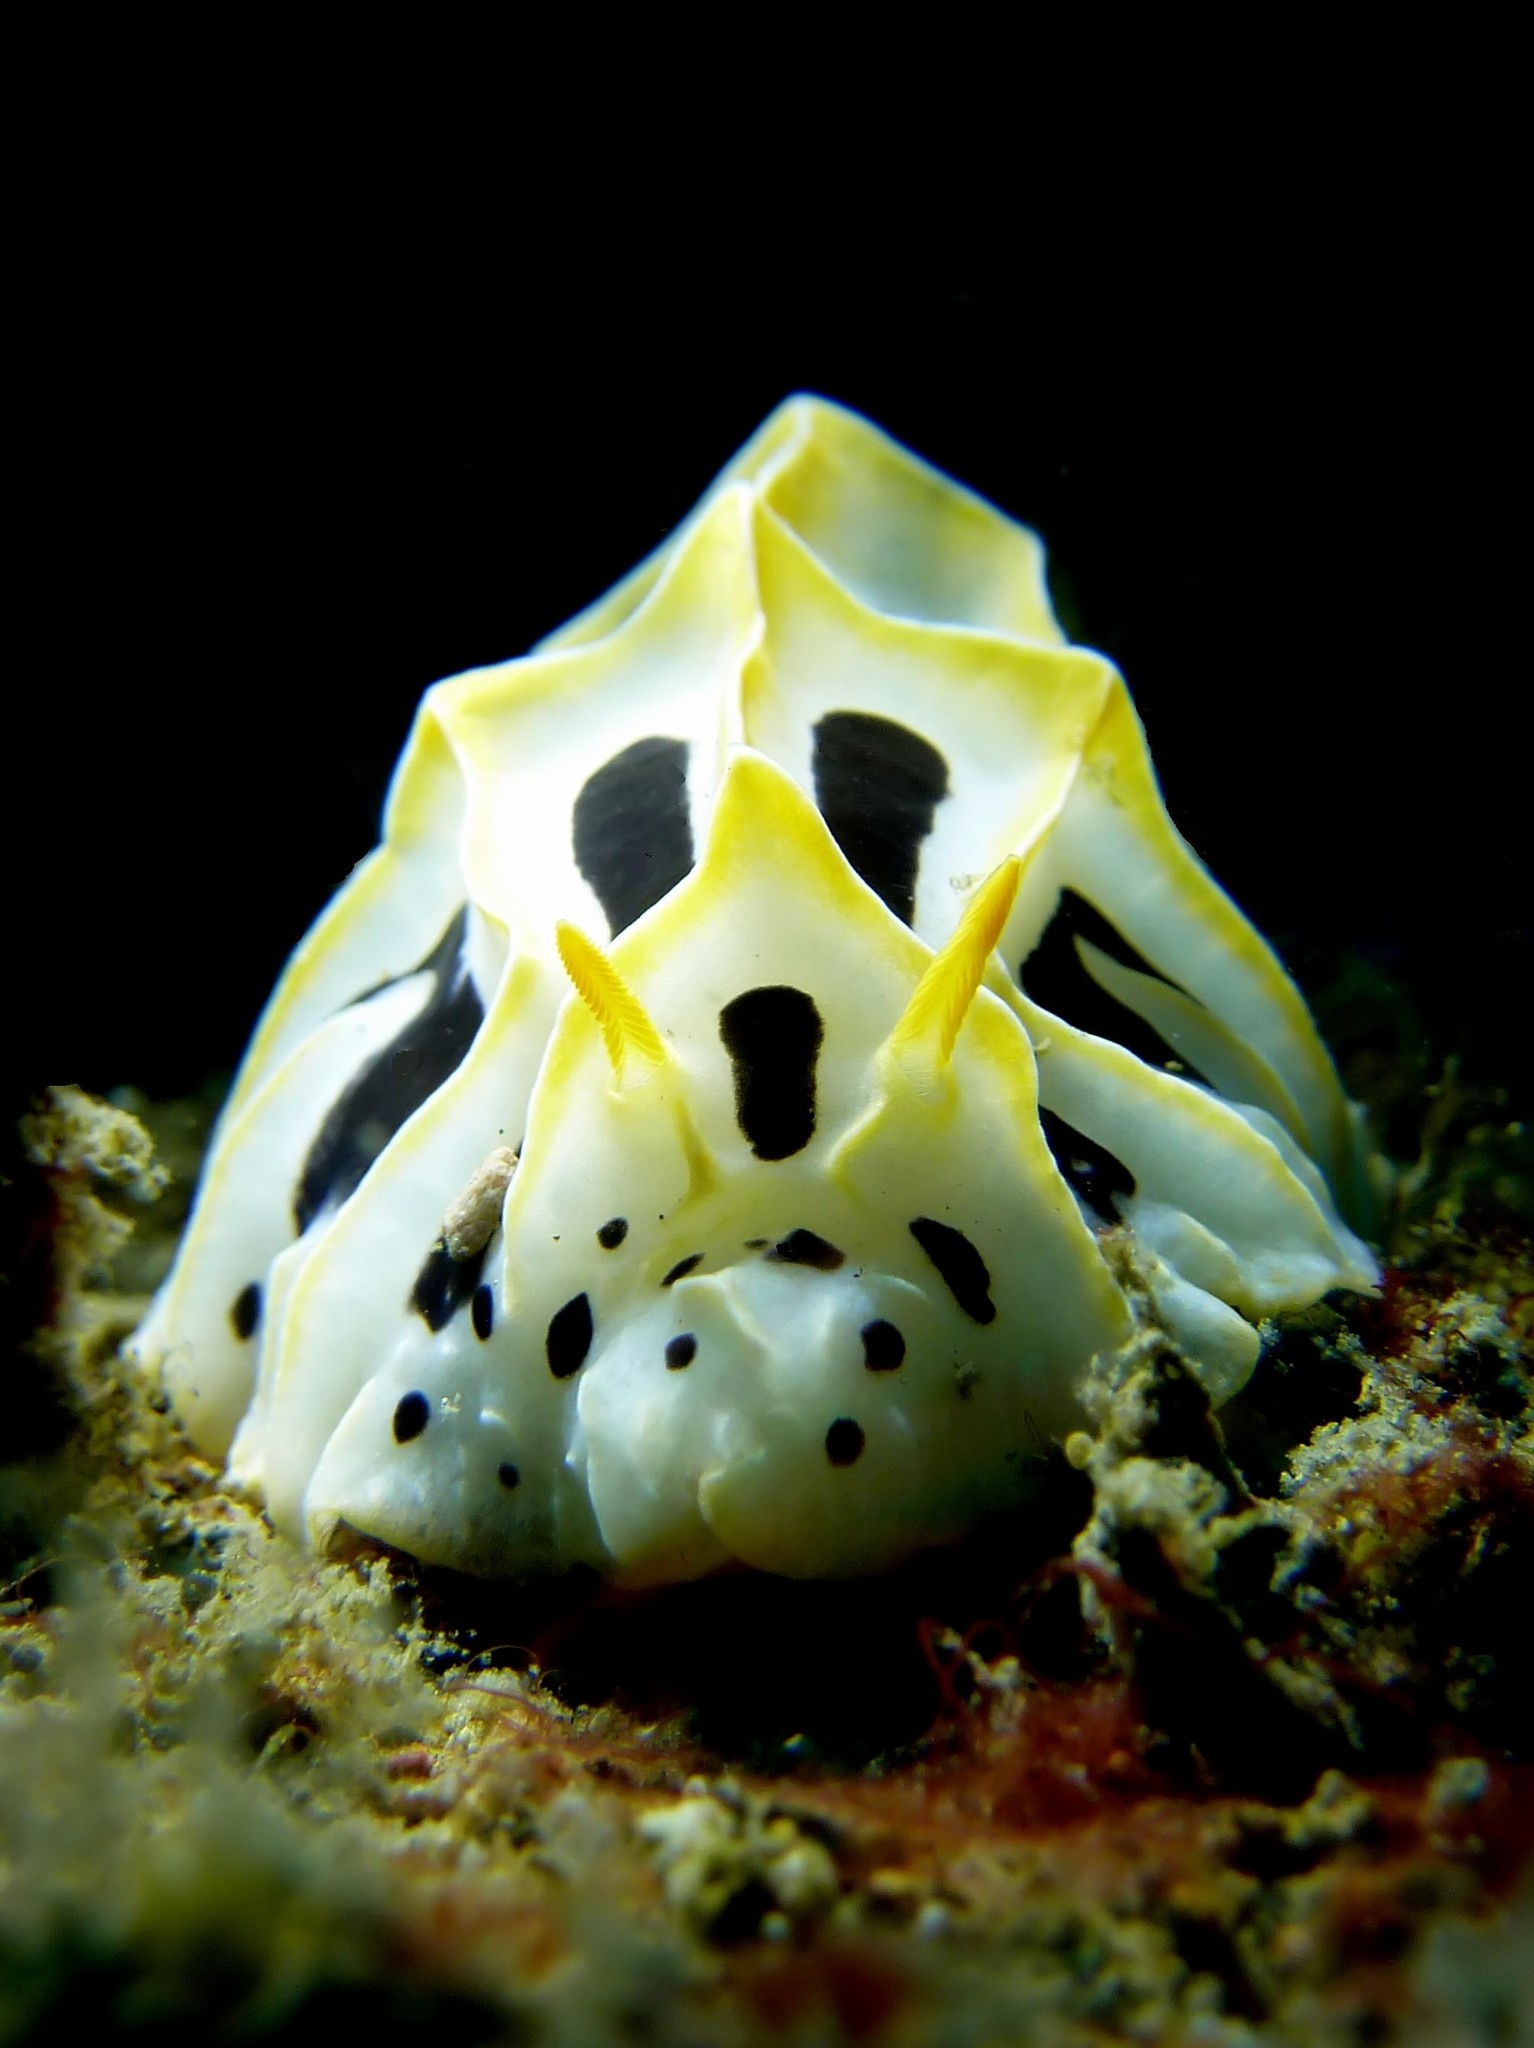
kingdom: Animalia
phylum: Mollusca
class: Gastropoda
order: Nudibranchia
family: Phyllidiidae
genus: Reticulidia
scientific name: Reticulidia fungia
